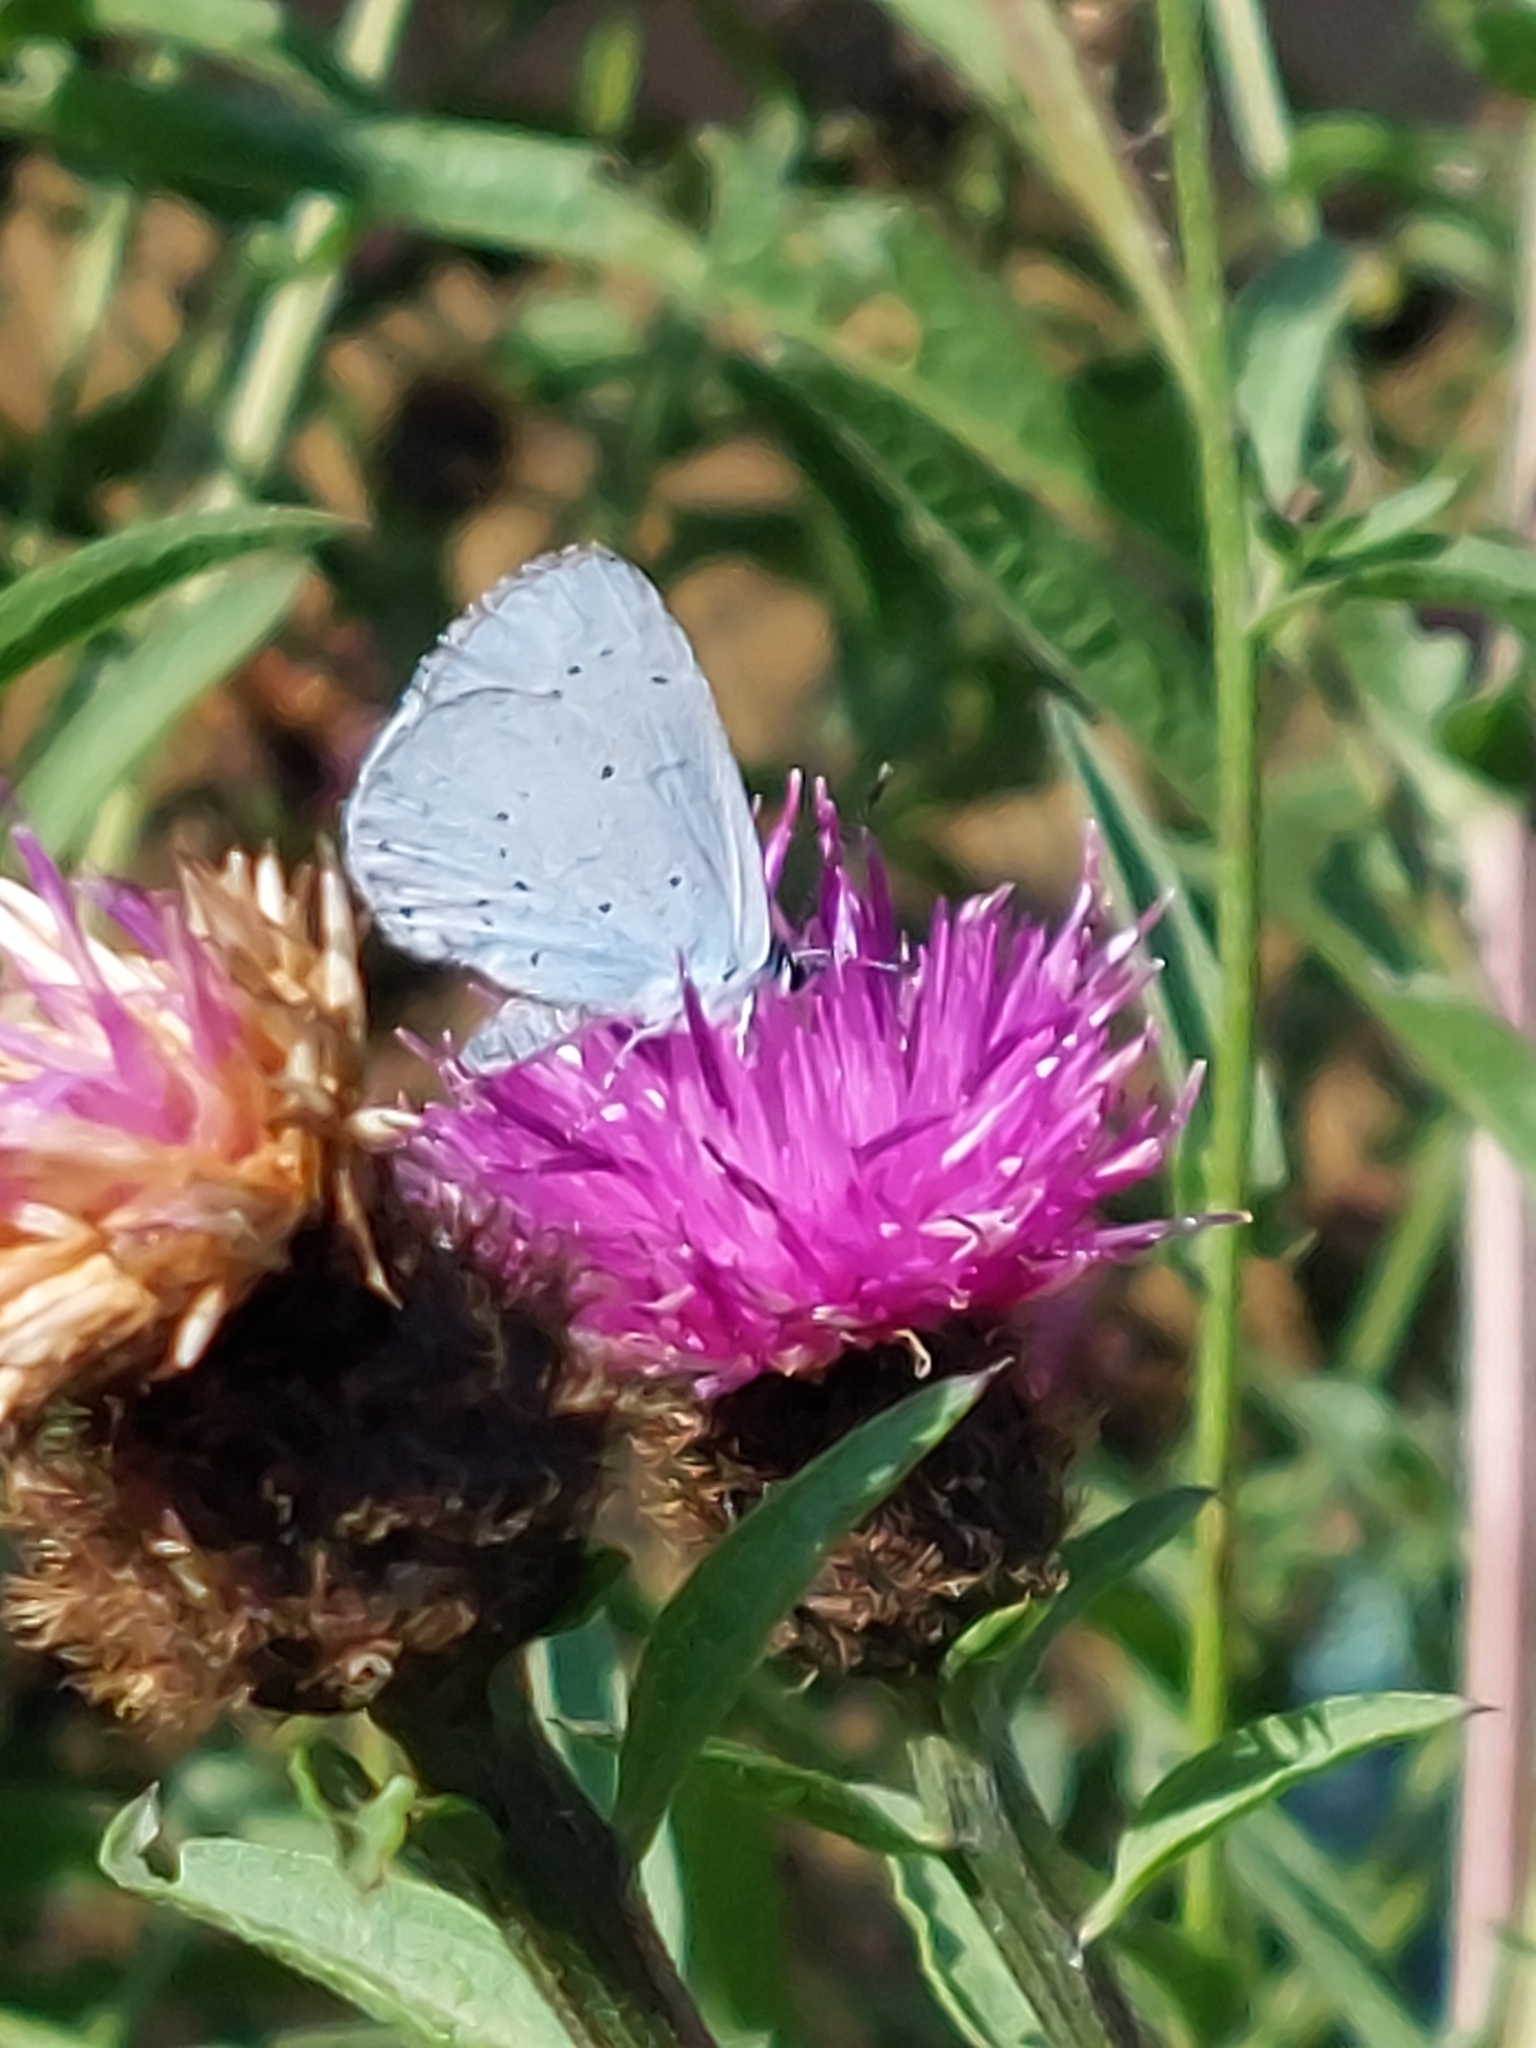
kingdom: Animalia
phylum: Arthropoda
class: Insecta
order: Lepidoptera
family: Lycaenidae
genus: Celastrina
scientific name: Celastrina argiolus
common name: Holly blue
